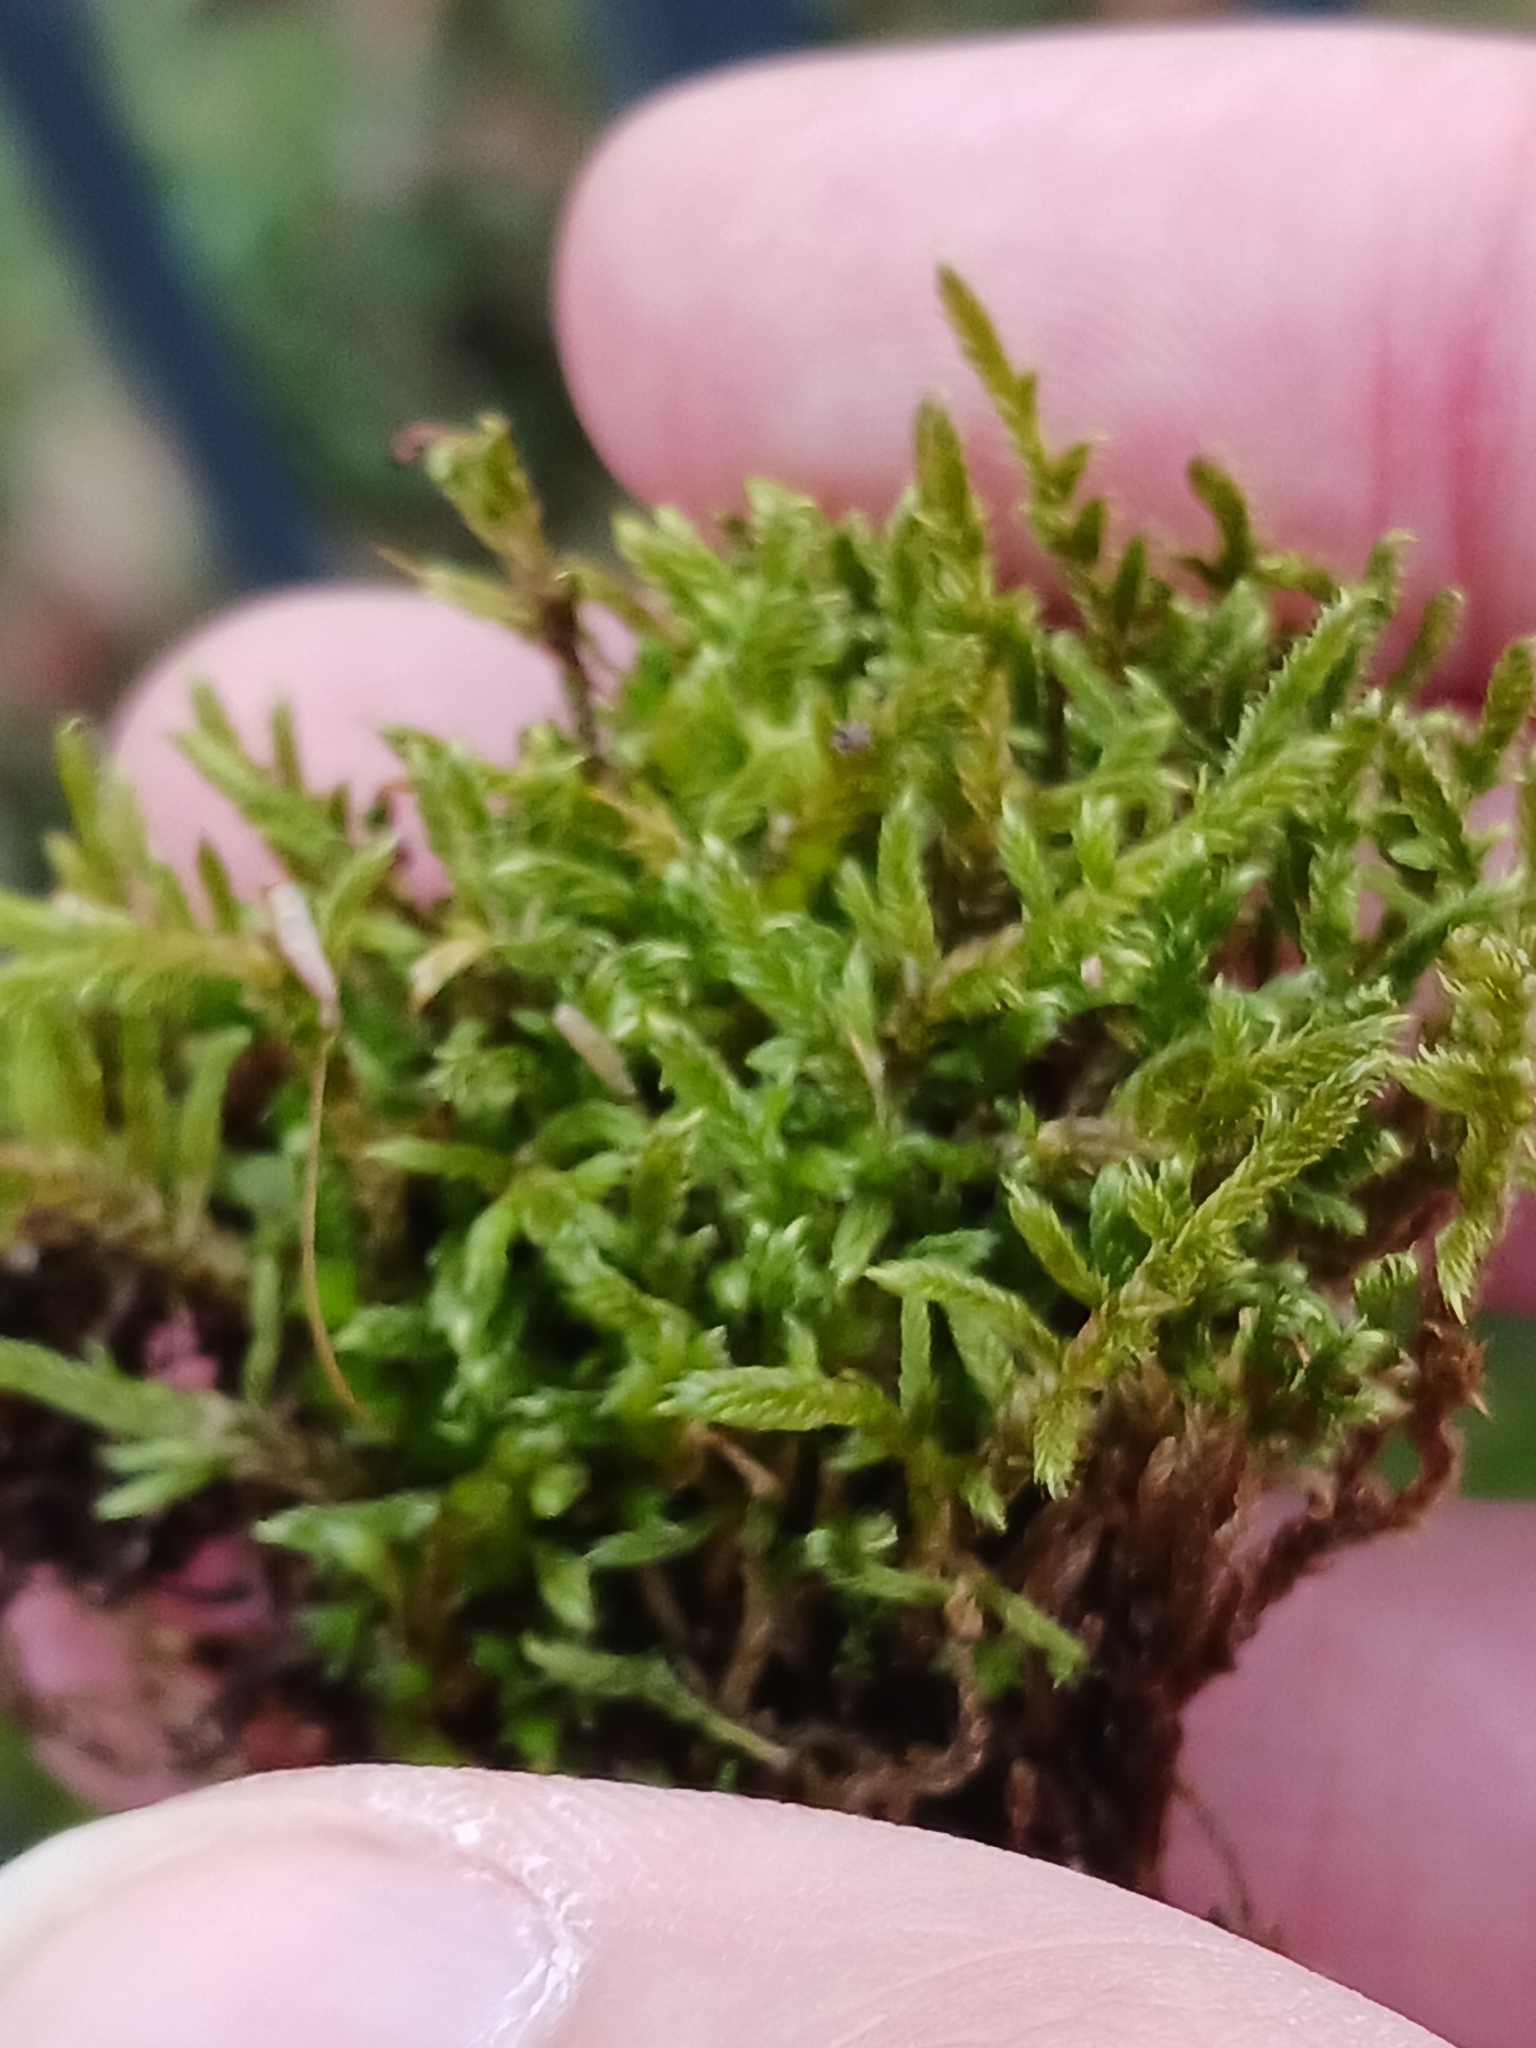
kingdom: Plantae
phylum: Bryophyta
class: Bryopsida
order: Hypnales
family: Hypnaceae
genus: Hypnum
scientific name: Hypnum cupressiforme
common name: Cypress-leaved plait-moss
